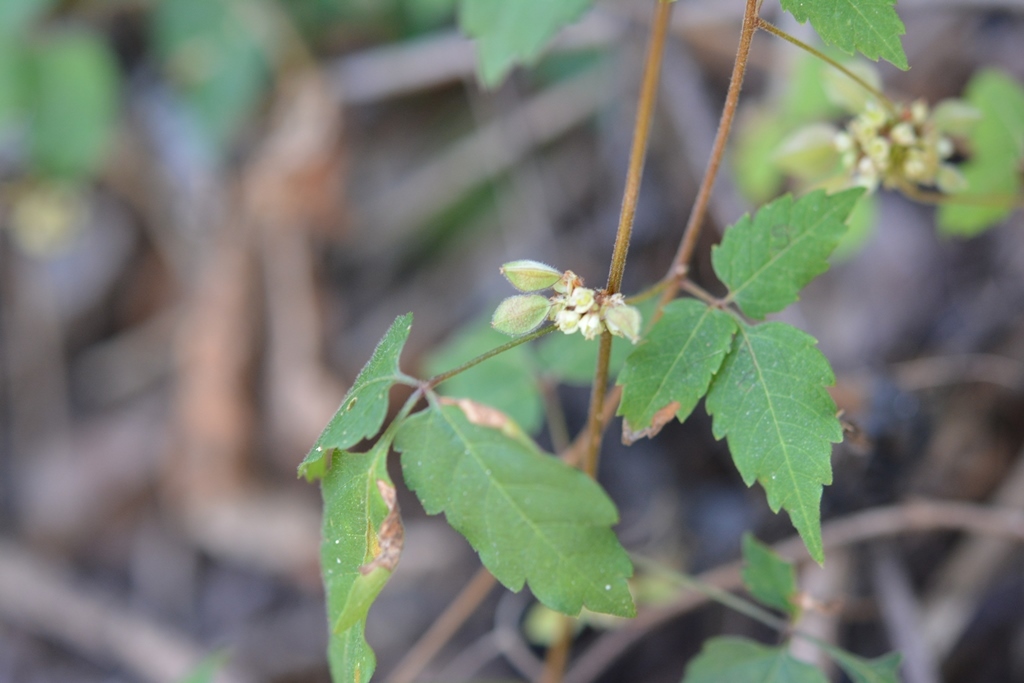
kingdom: Plantae
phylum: Tracheophyta
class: Magnoliopsida
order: Sapindales
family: Sapindaceae
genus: Urvillea
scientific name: Urvillea ulmacea
